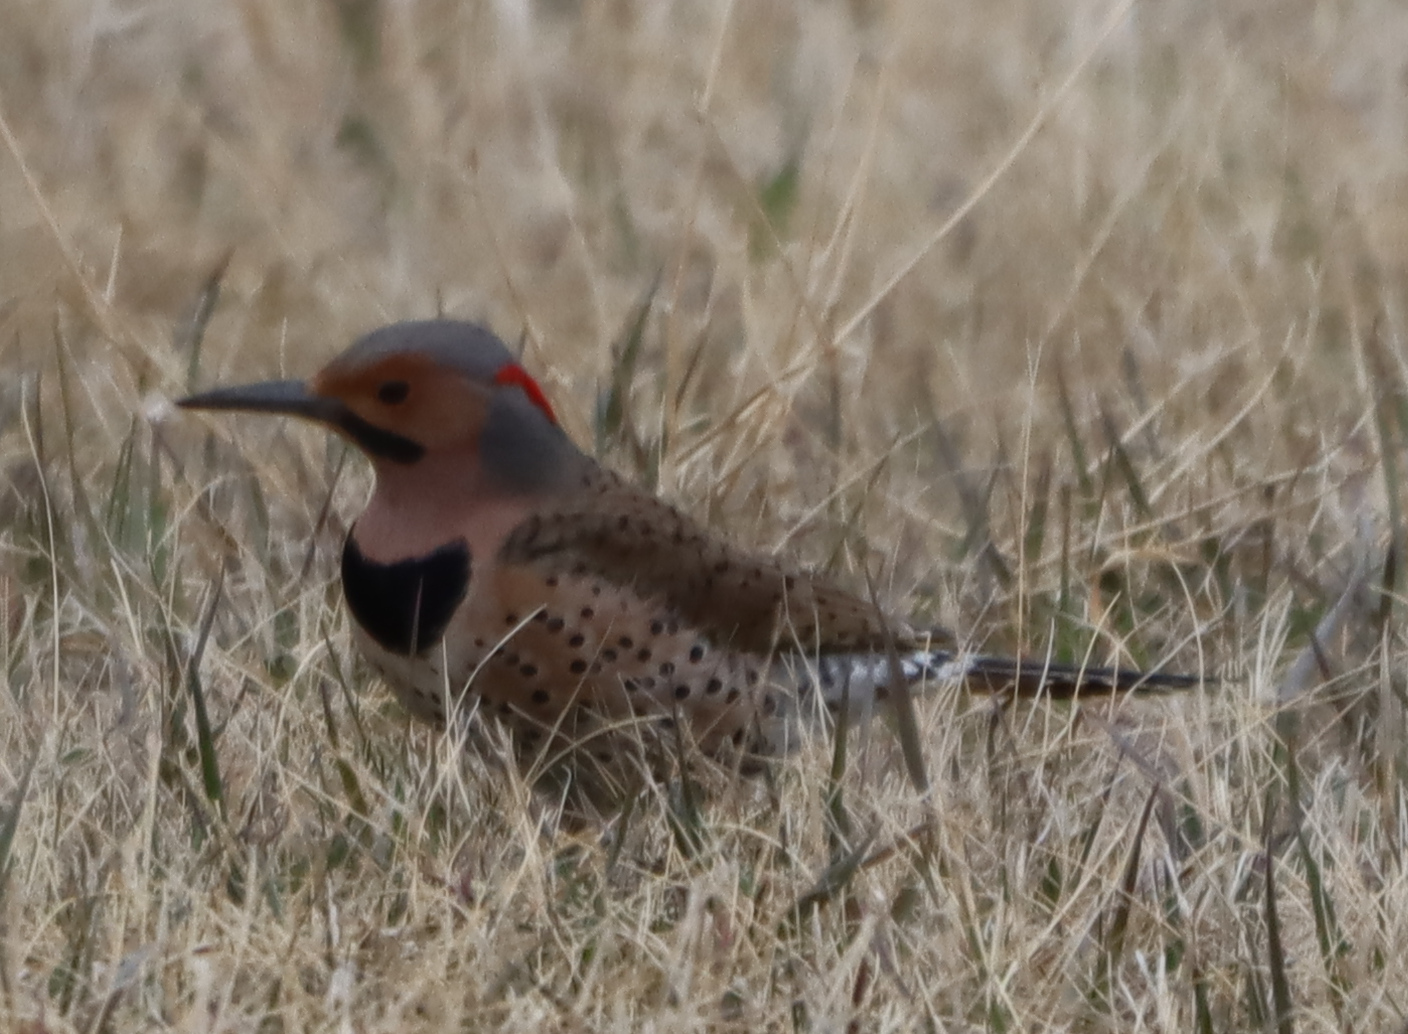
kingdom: Animalia
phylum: Chordata
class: Aves
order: Piciformes
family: Picidae
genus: Colaptes
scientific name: Colaptes auratus
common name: Northern flicker
